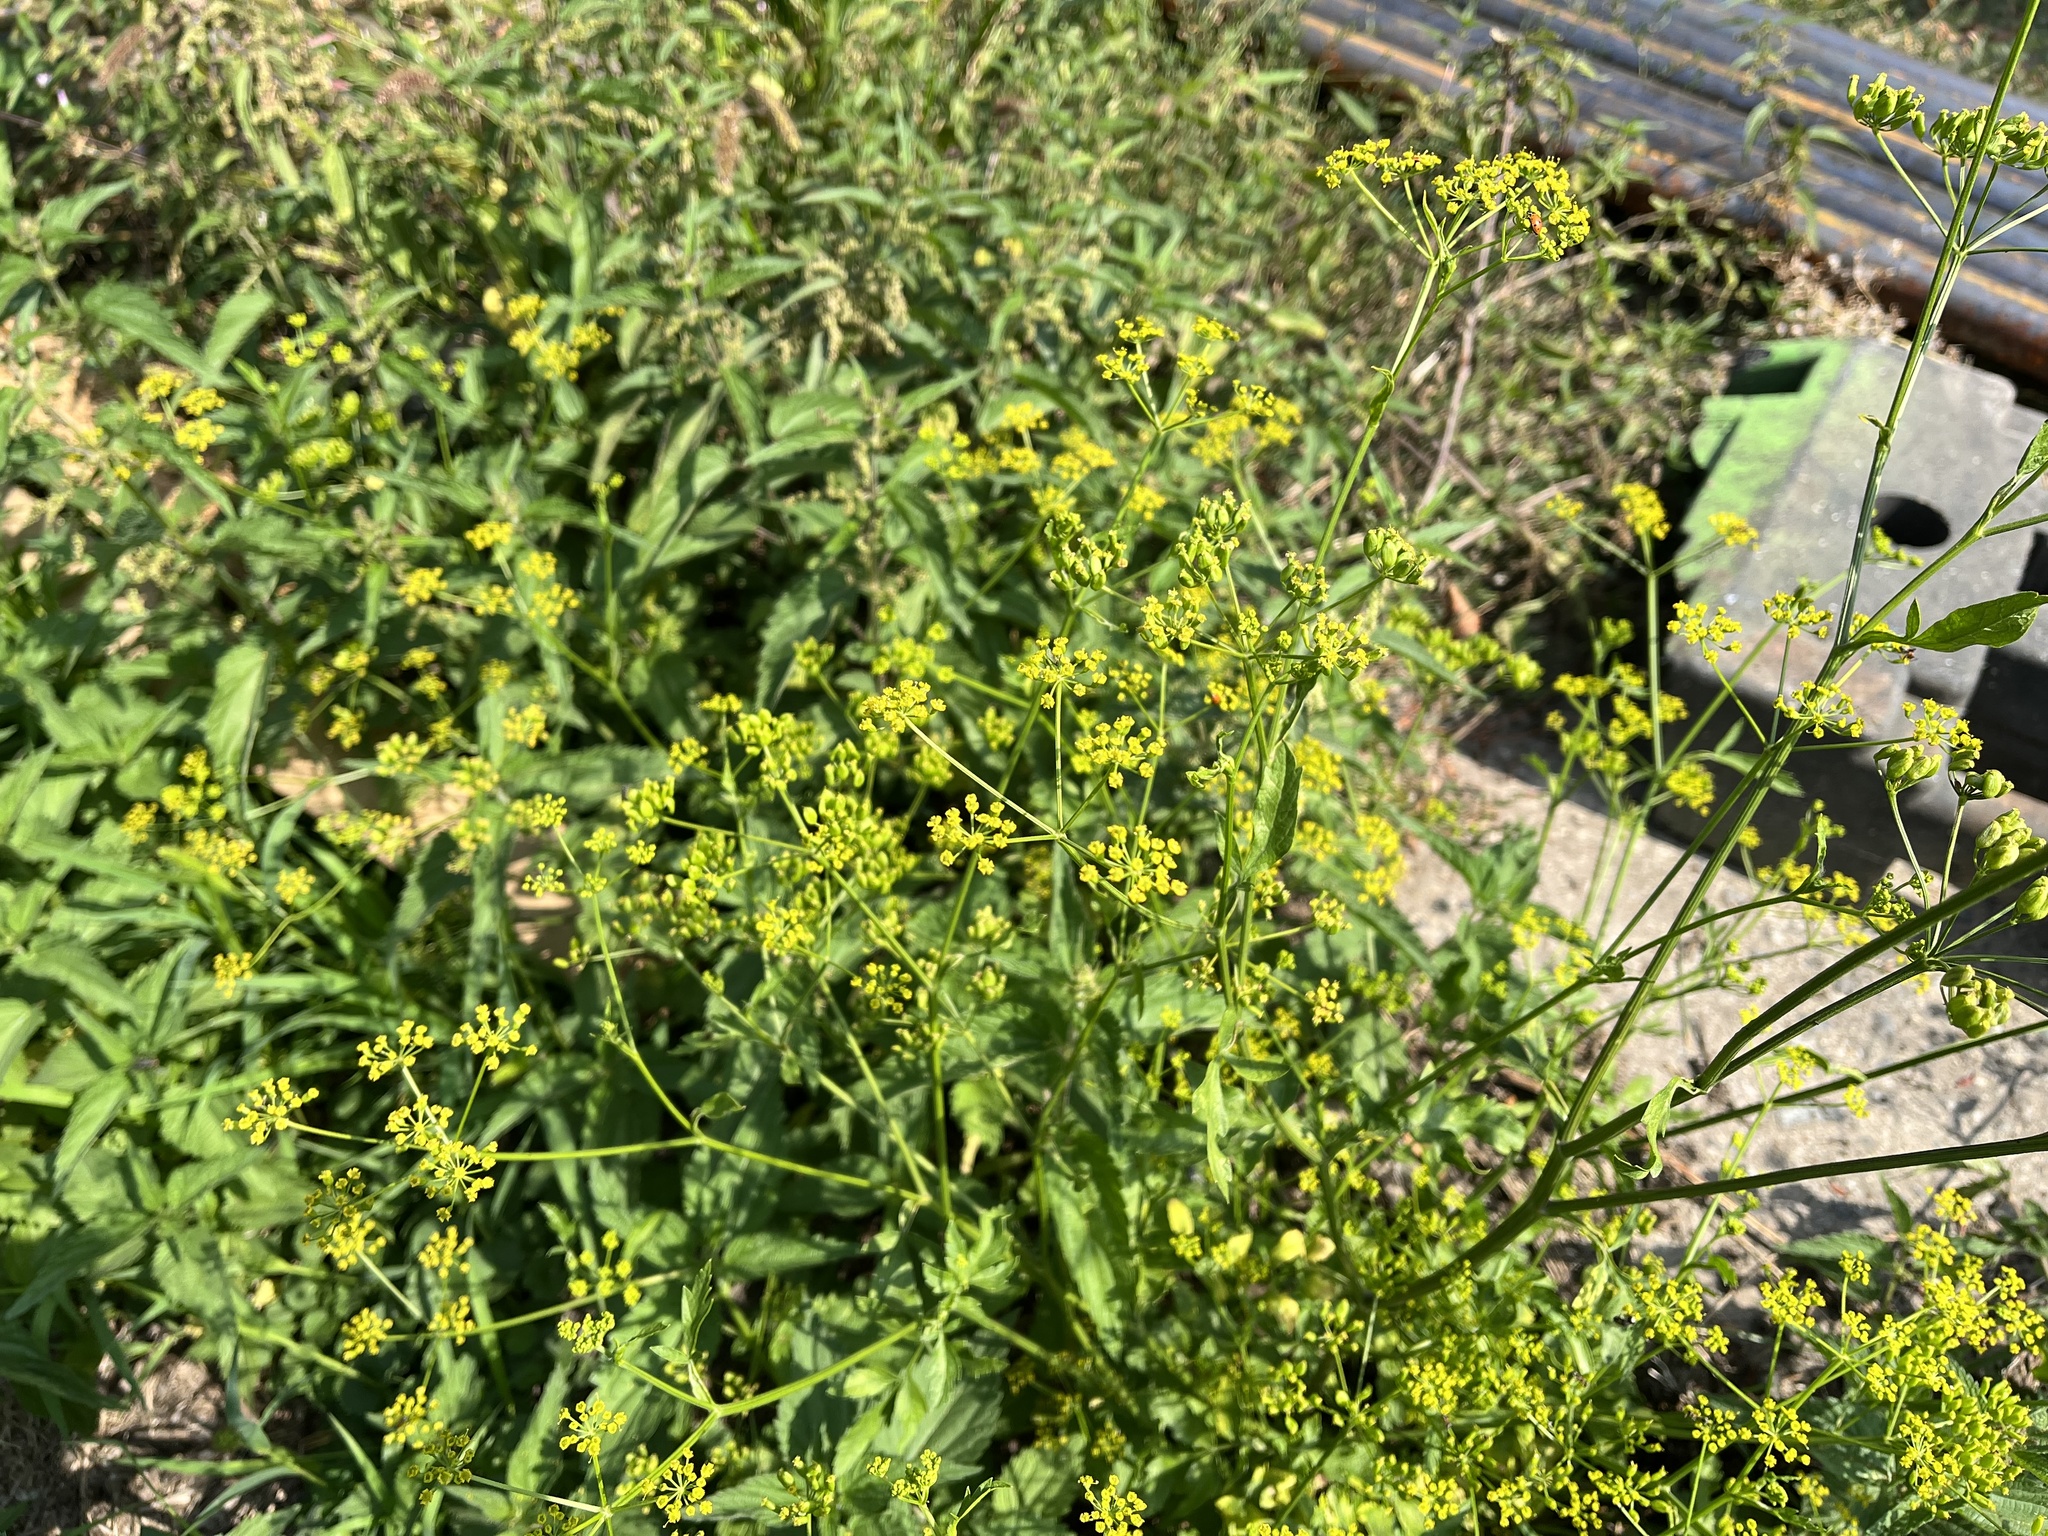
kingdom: Plantae
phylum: Tracheophyta
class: Magnoliopsida
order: Apiales
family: Apiaceae
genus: Pastinaca
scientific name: Pastinaca sativa
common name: Wild parsnip
